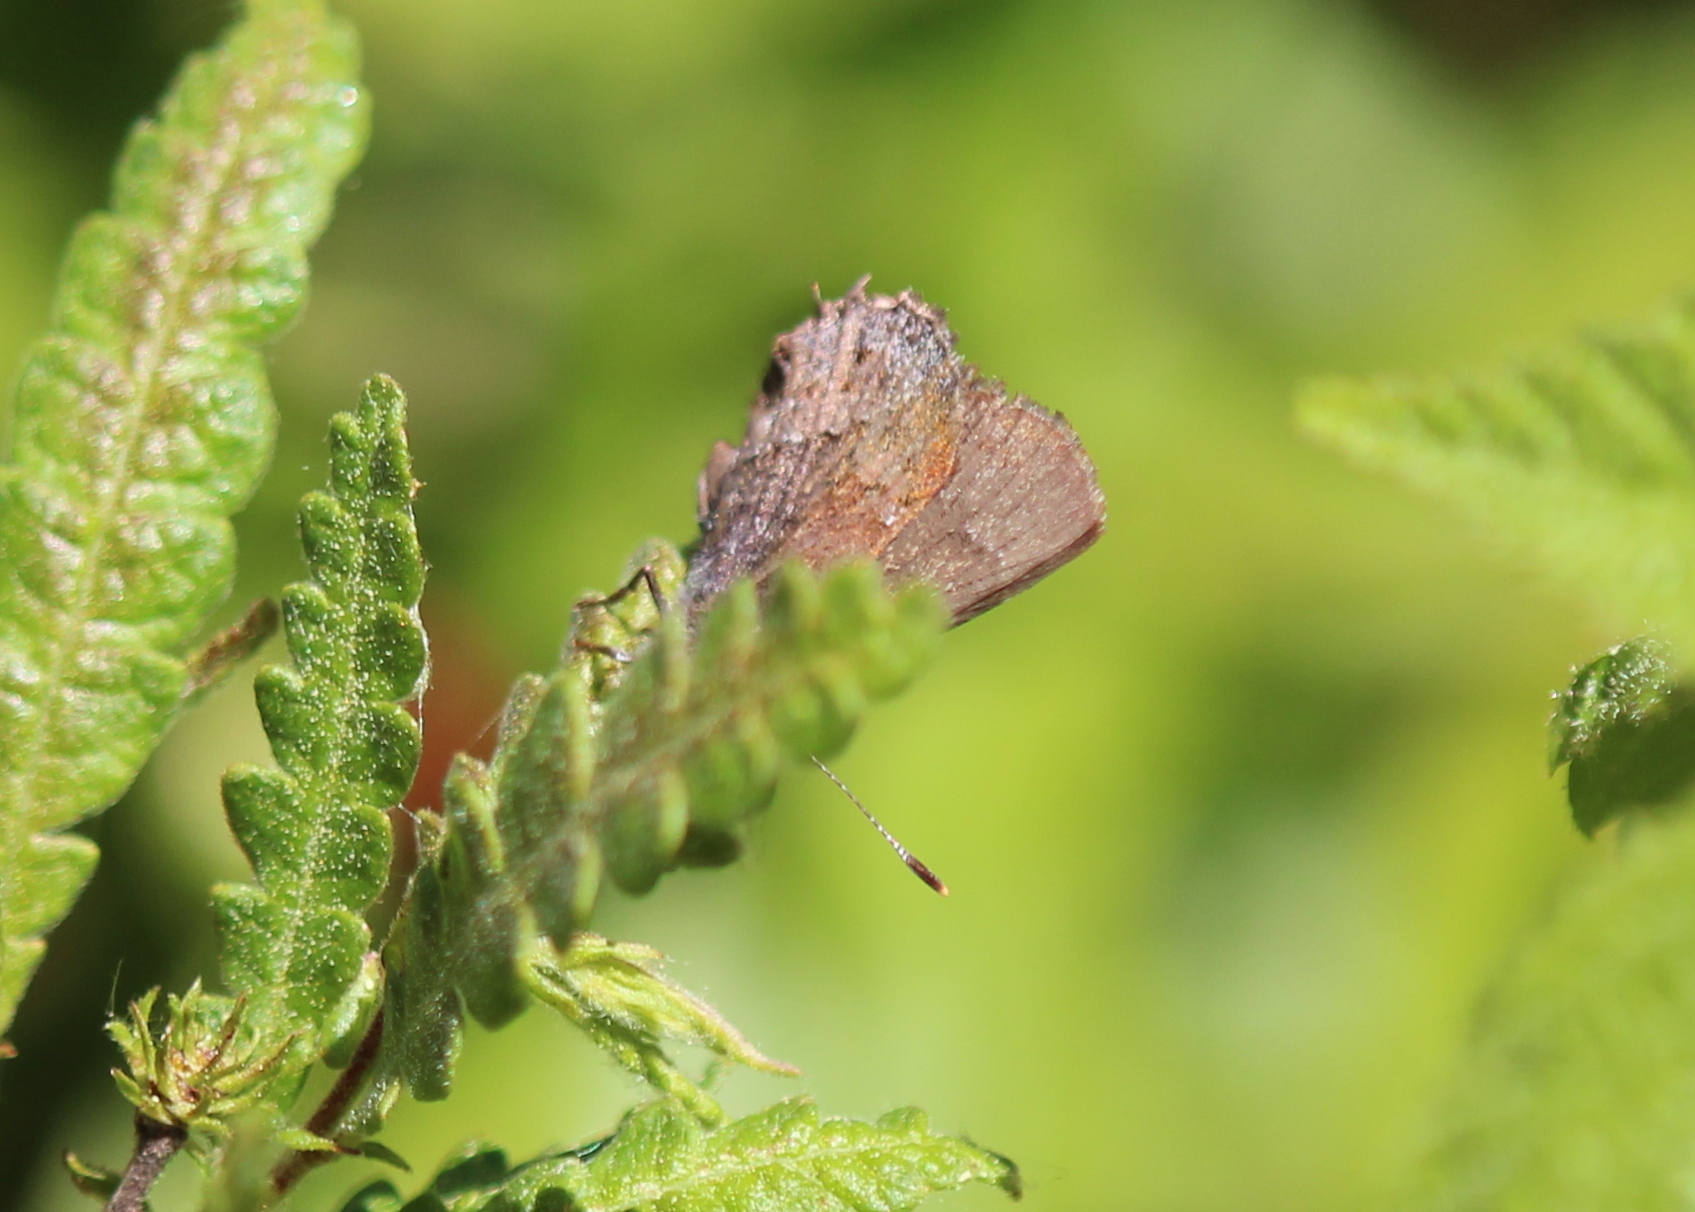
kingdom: Animalia
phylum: Arthropoda
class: Insecta
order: Lepidoptera
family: Lycaenidae
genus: Thecla
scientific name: Thecla irus
